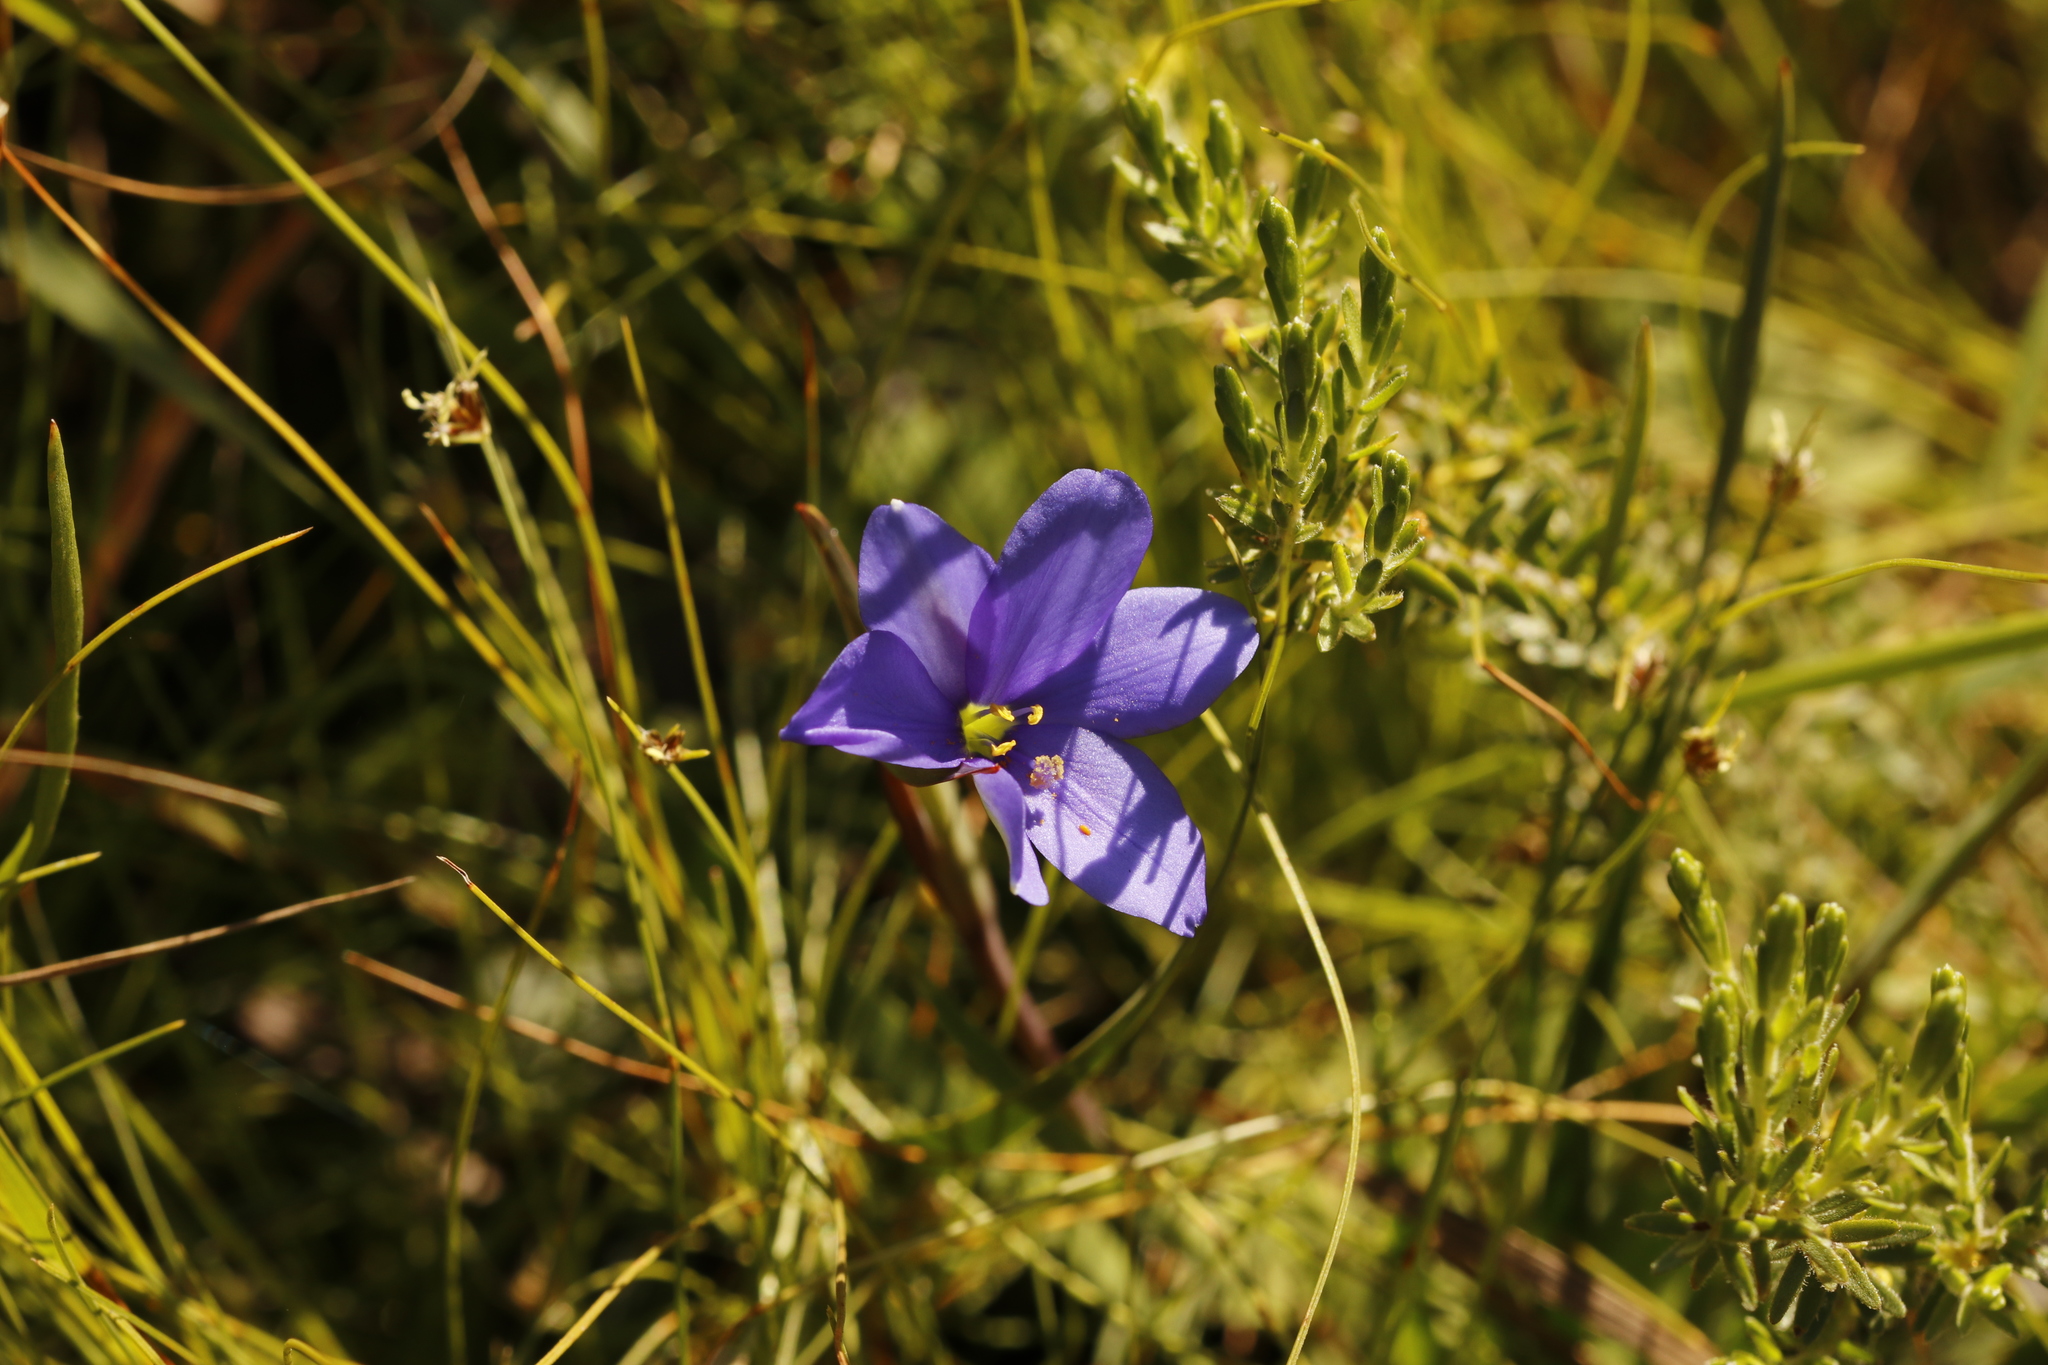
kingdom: Plantae
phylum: Tracheophyta
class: Liliopsida
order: Asparagales
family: Iridaceae
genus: Aristea
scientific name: Aristea pusilla
